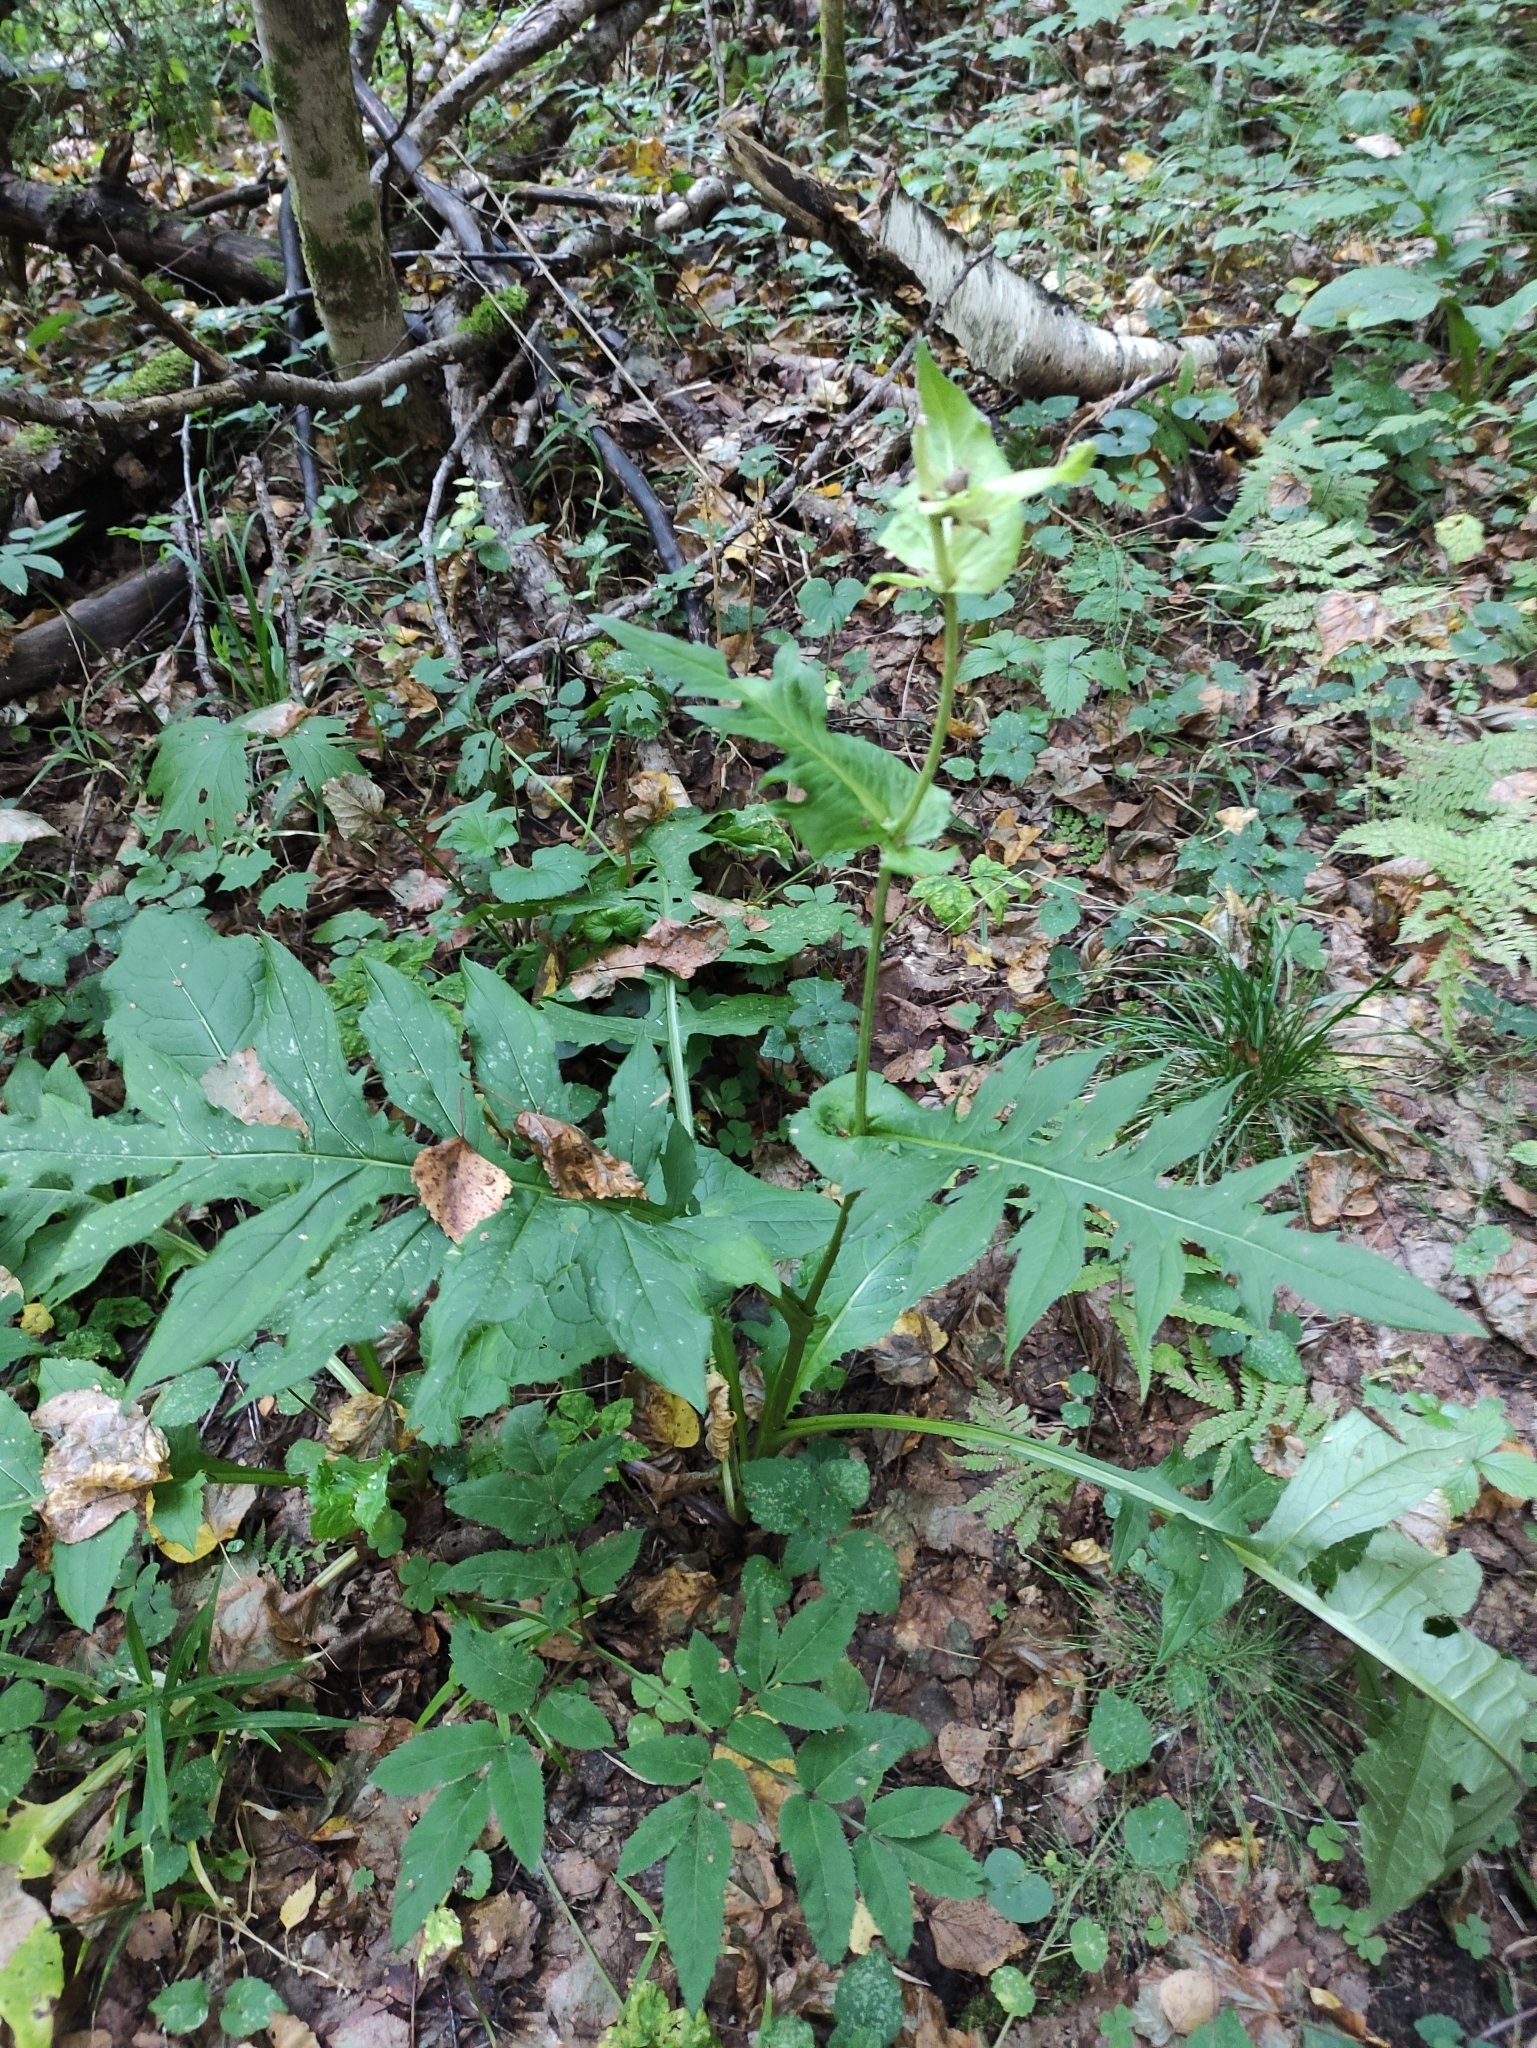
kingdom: Plantae
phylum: Tracheophyta
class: Magnoliopsida
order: Asterales
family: Asteraceae
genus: Cirsium
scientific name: Cirsium oleraceum
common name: Cabbage thistle
